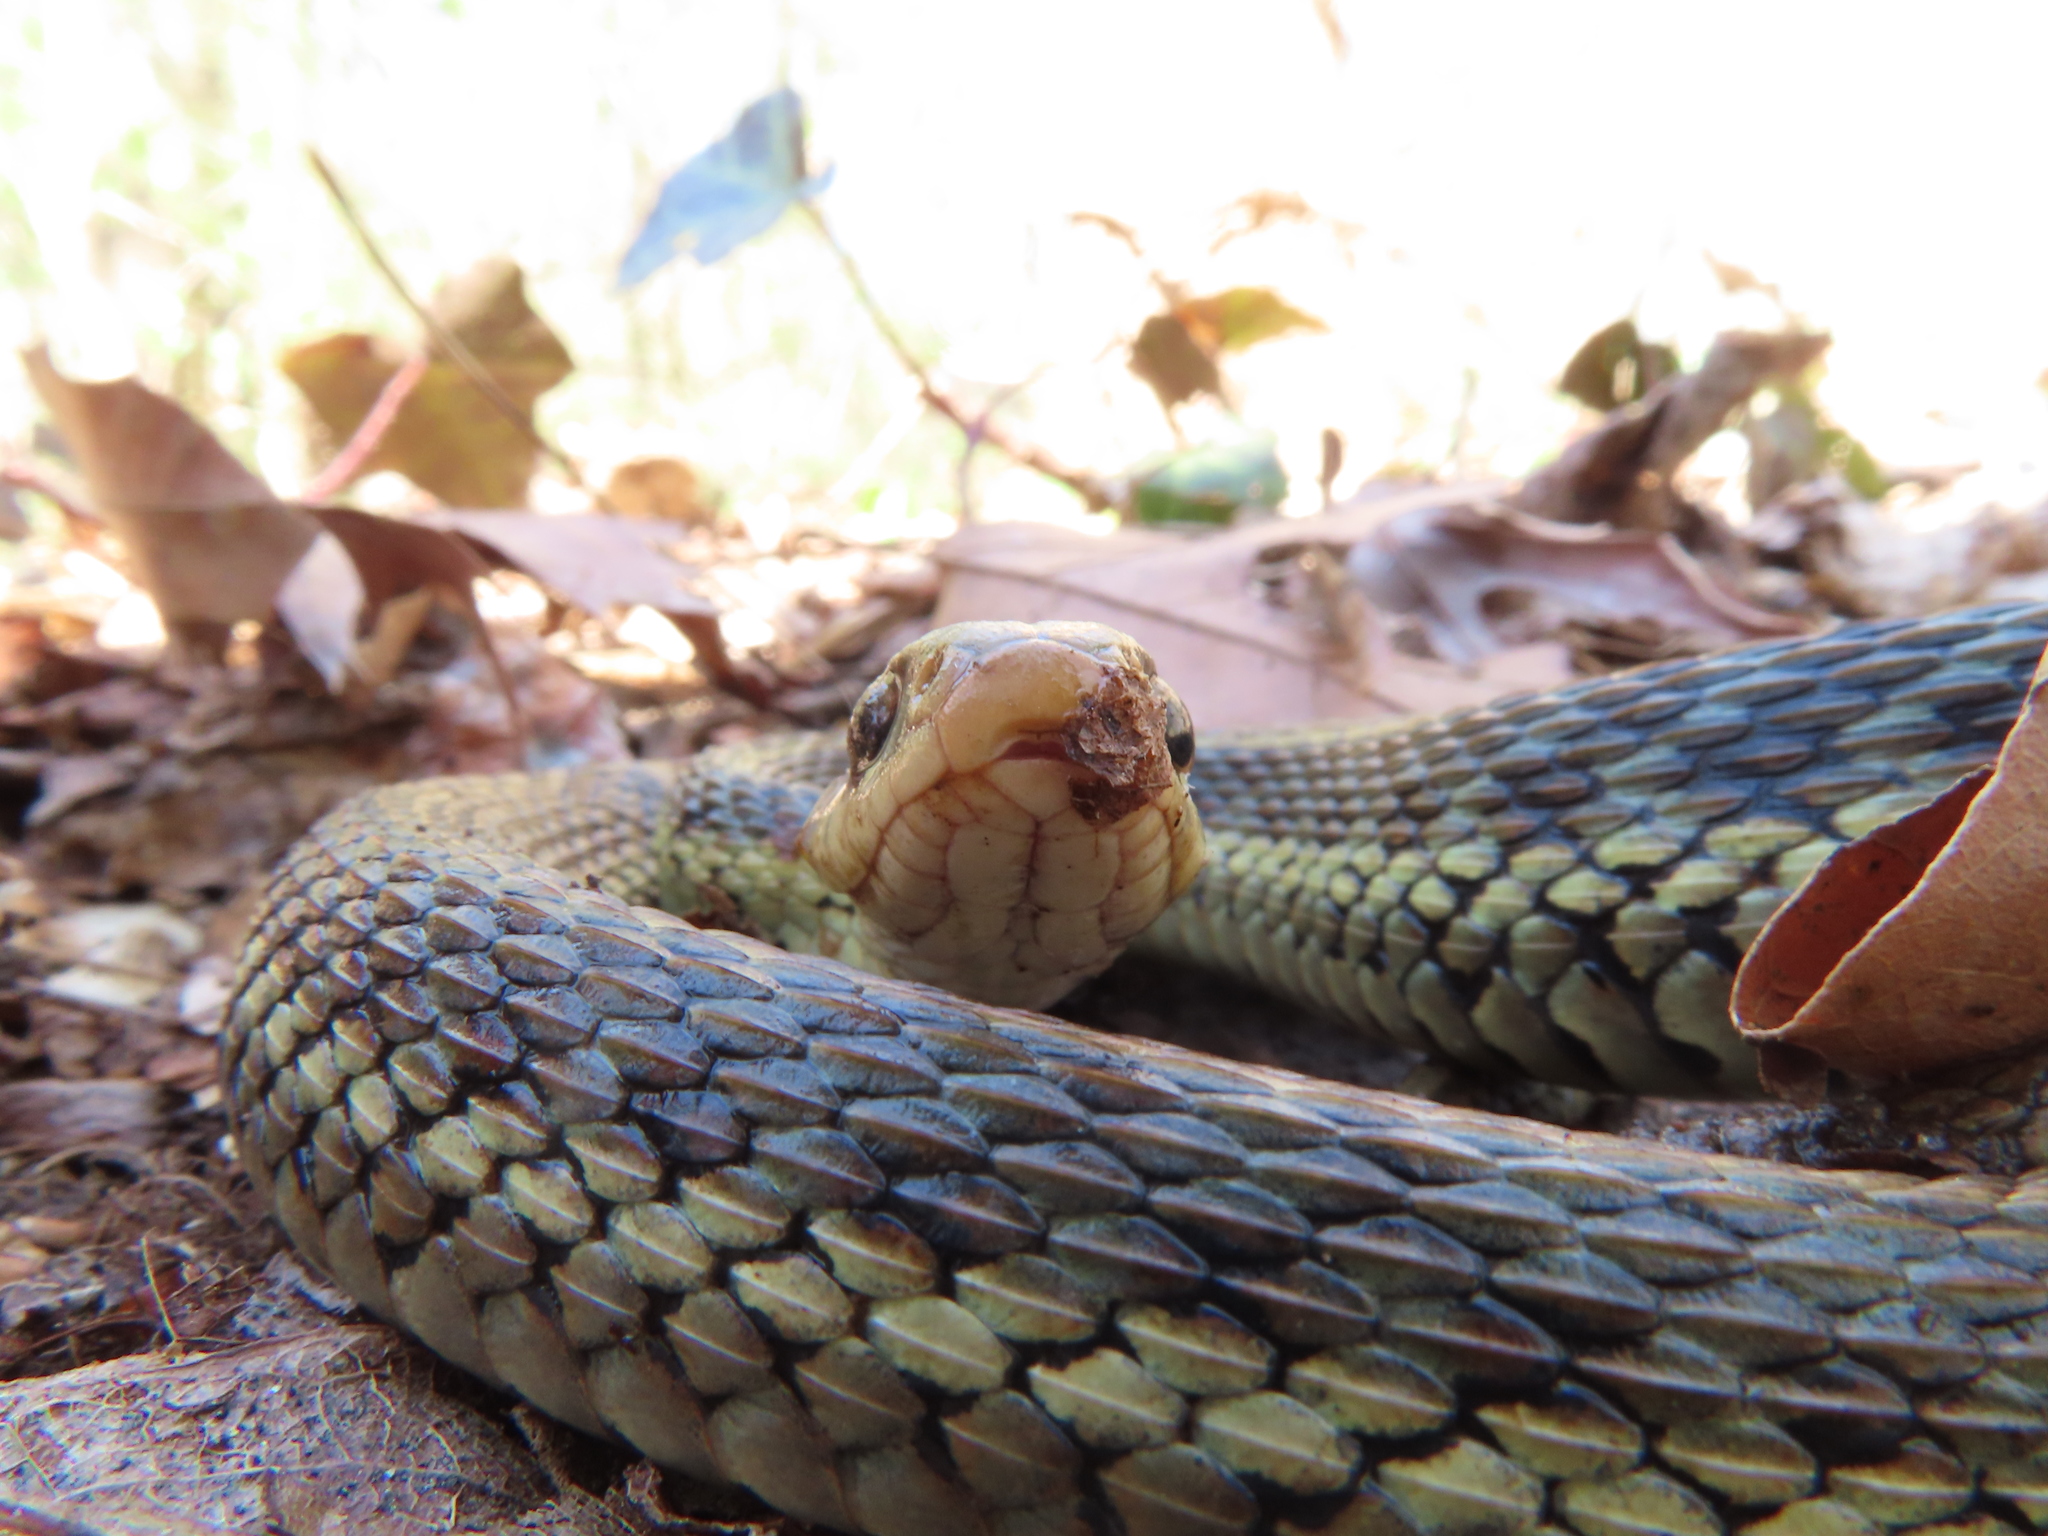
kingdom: Animalia
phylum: Chordata
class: Squamata
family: Colubridae
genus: Thamnophis
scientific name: Thamnophis sirtalis
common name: Common garter snake
